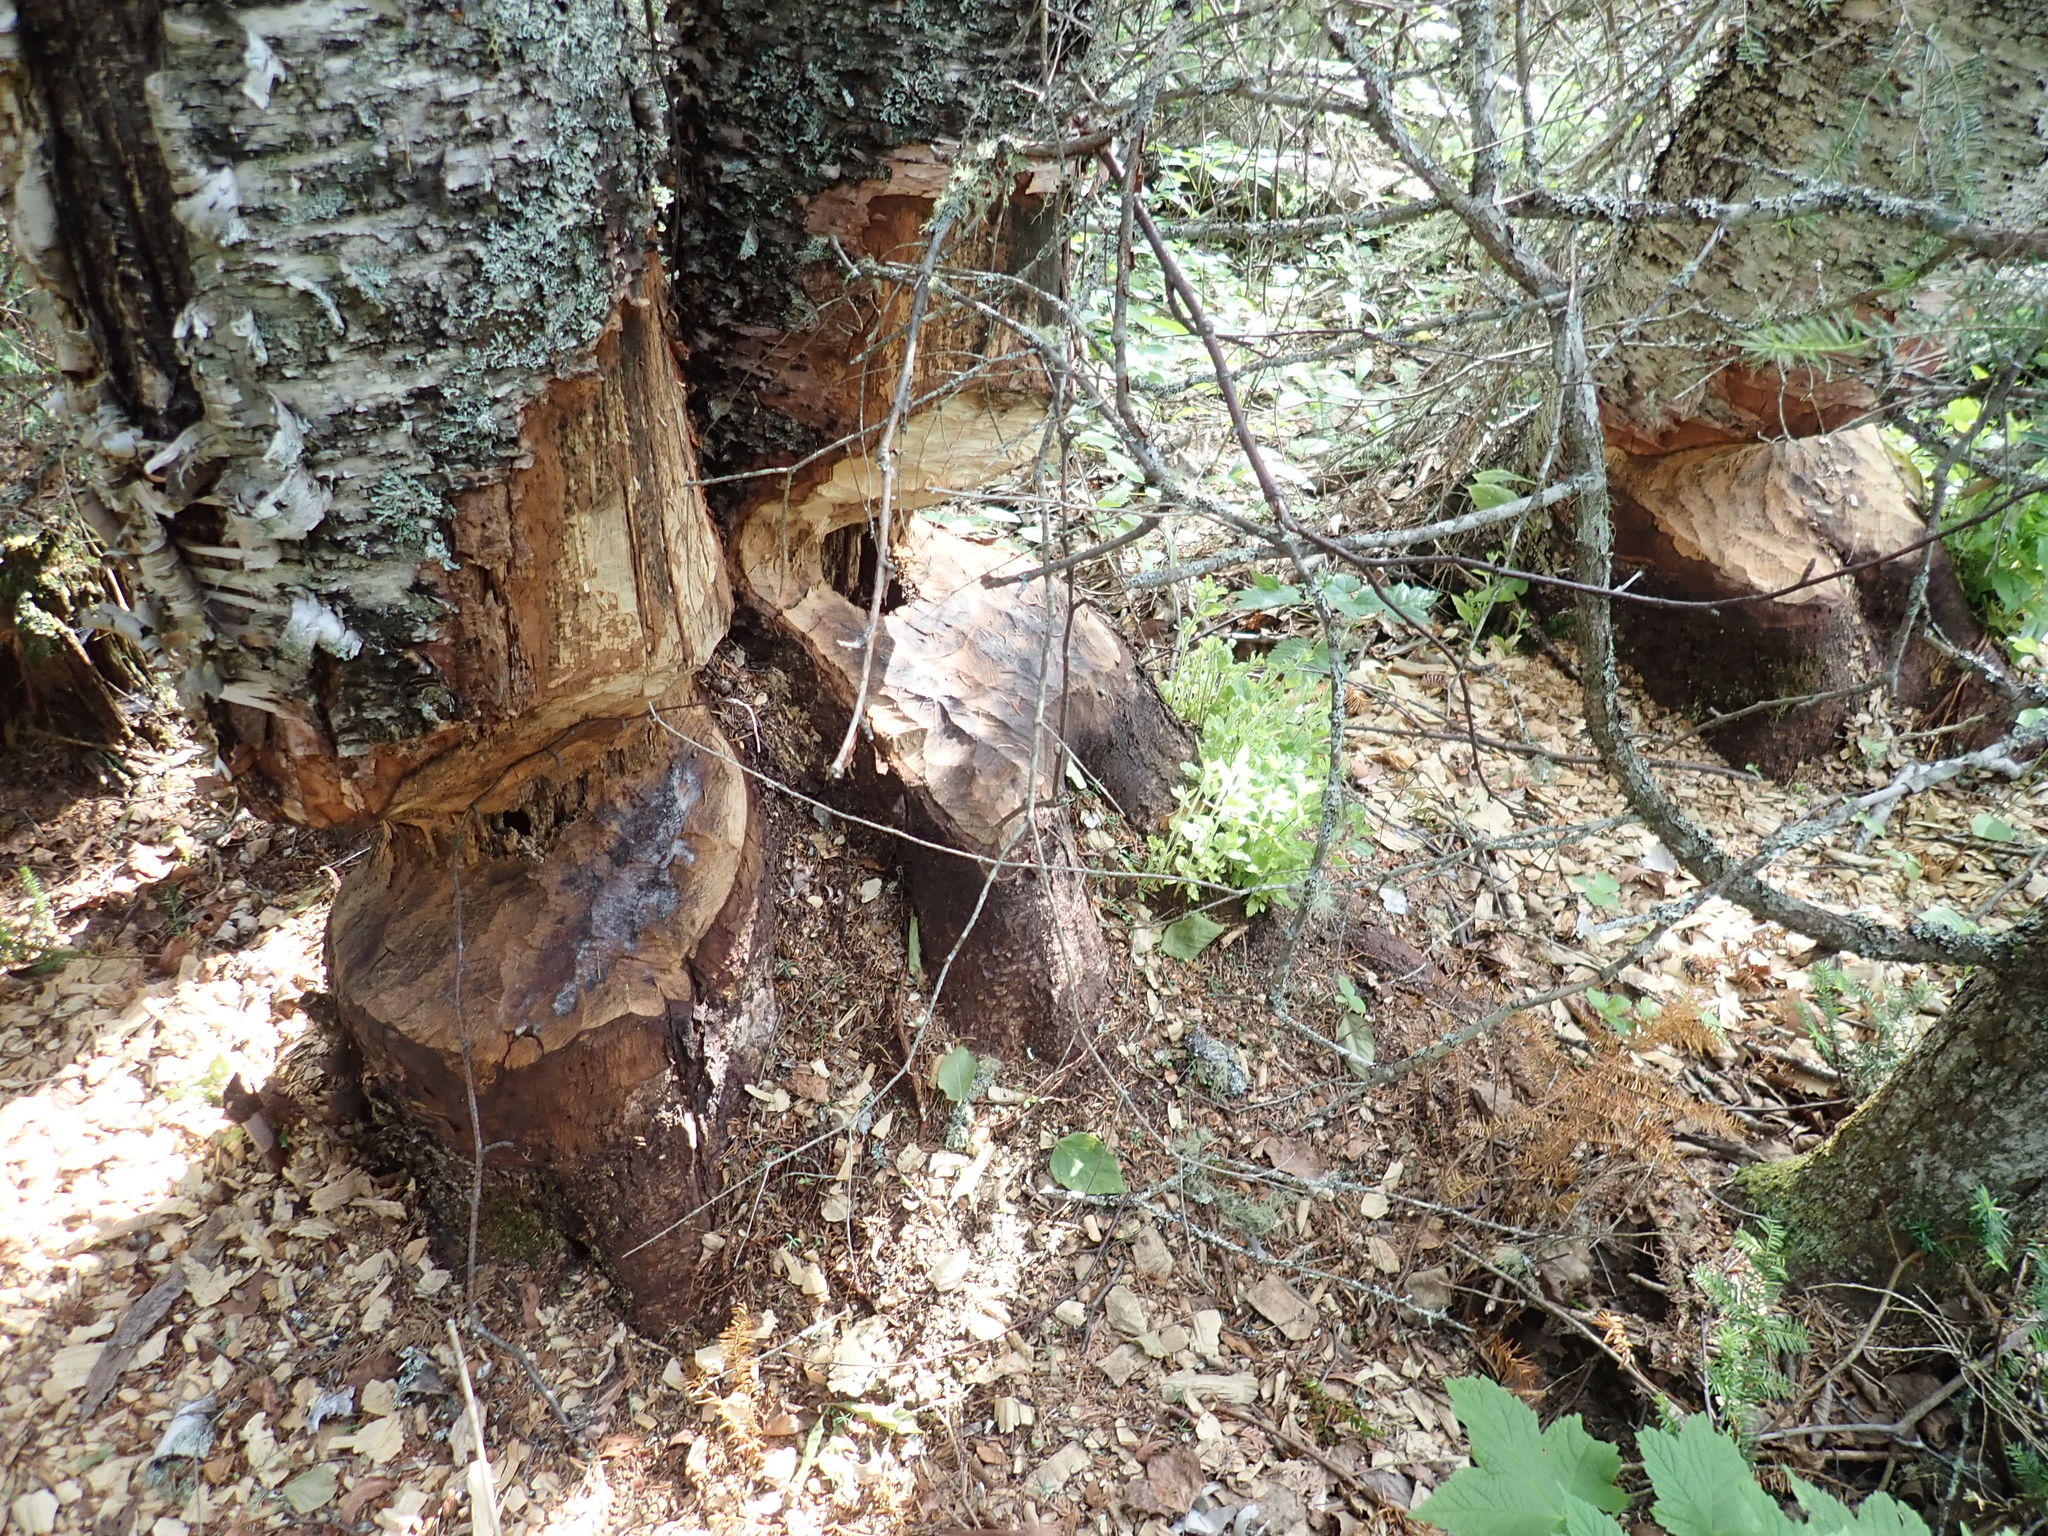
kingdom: Animalia
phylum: Chordata
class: Mammalia
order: Rodentia
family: Castoridae
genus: Castor
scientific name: Castor canadensis
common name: American beaver
